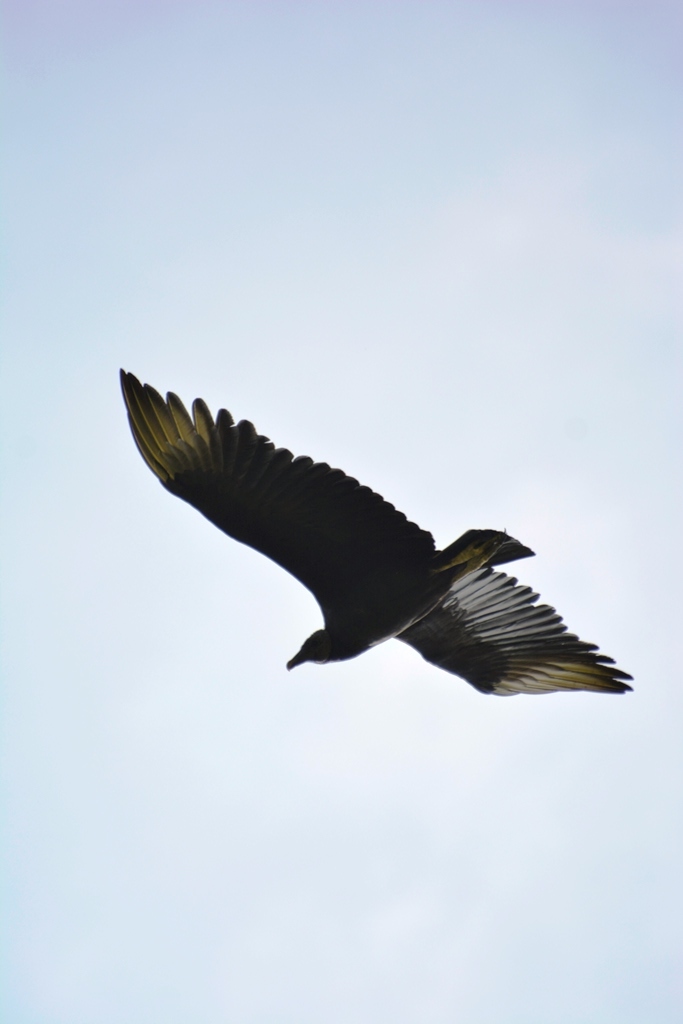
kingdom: Animalia
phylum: Chordata
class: Aves
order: Accipitriformes
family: Cathartidae
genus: Coragyps
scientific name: Coragyps atratus
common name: Black vulture
